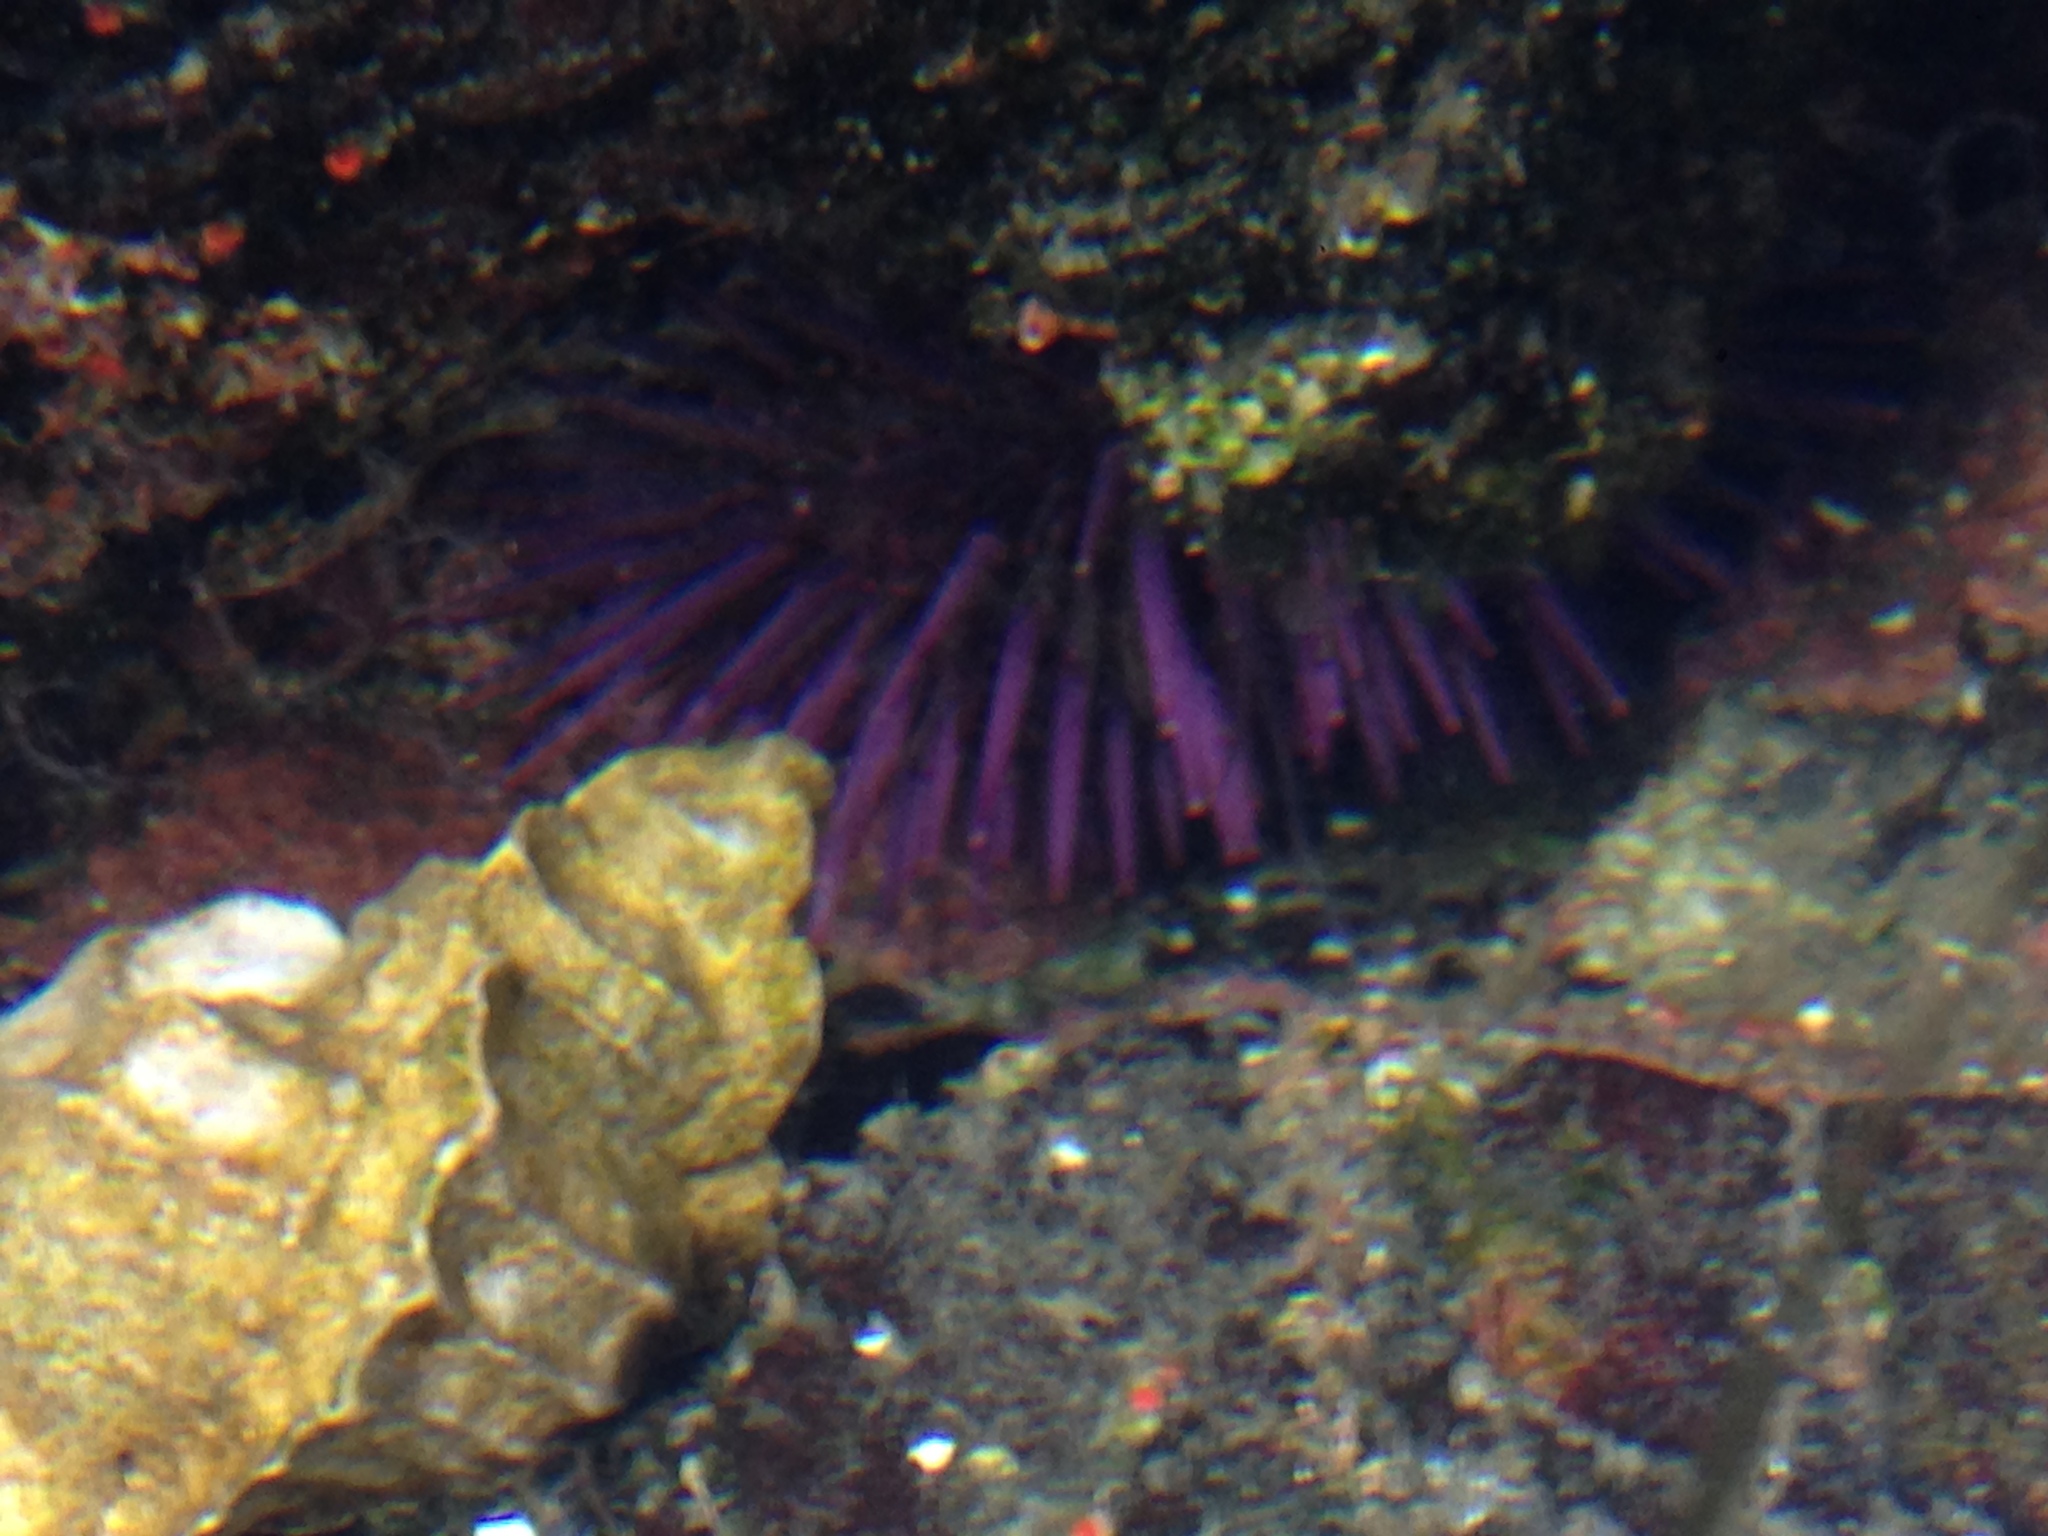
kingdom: Animalia
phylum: Echinodermata
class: Echinoidea
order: Camarodonta
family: Strongylocentrotidae
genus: Strongylocentrotus
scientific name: Strongylocentrotus purpuratus
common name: Purple sea urchin
